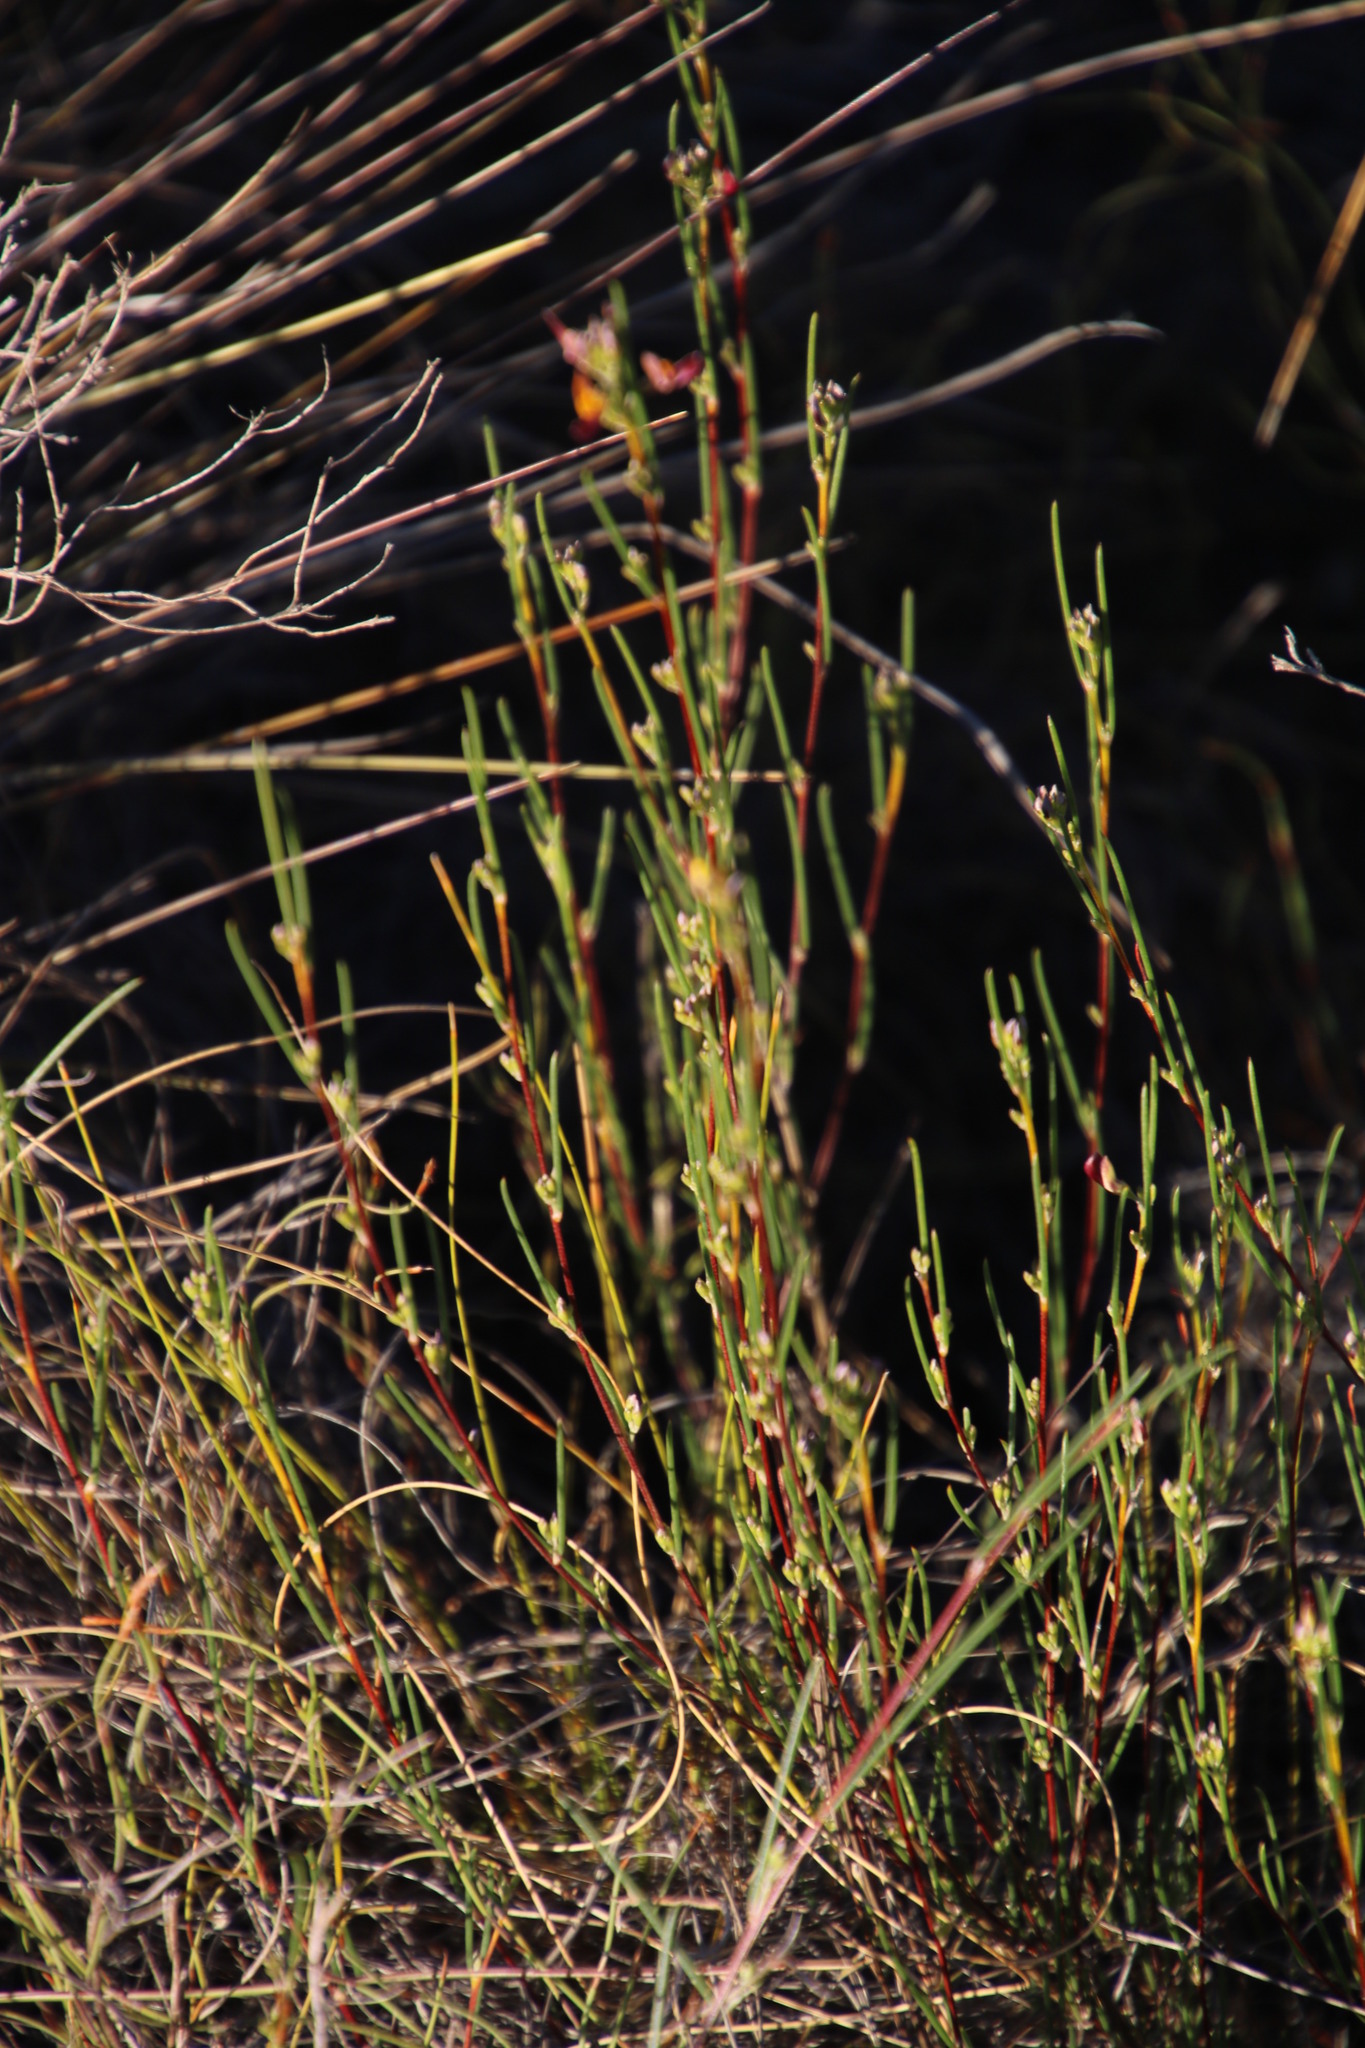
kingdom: Plantae
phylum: Tracheophyta
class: Magnoliopsida
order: Fabales
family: Fabaceae
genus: Aspalathus
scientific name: Aspalathus linearis
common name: Rooibos-tea
